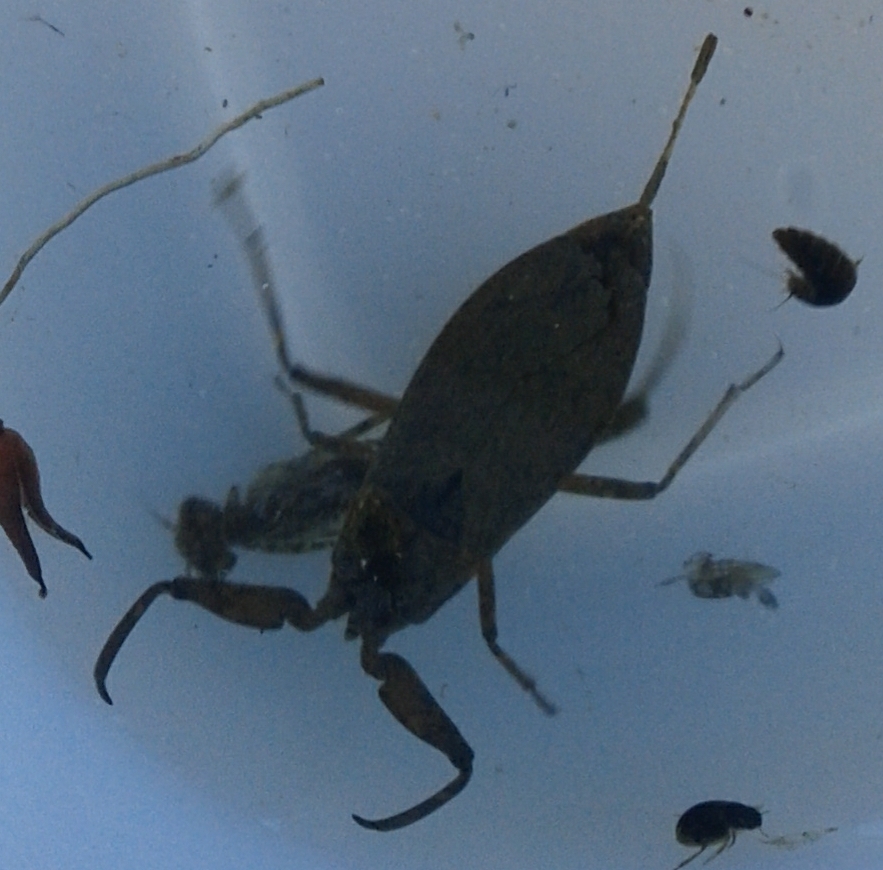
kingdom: Animalia
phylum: Arthropoda
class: Insecta
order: Hemiptera
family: Nepidae
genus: Nepa
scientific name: Nepa cinerea
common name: Water scorpion
